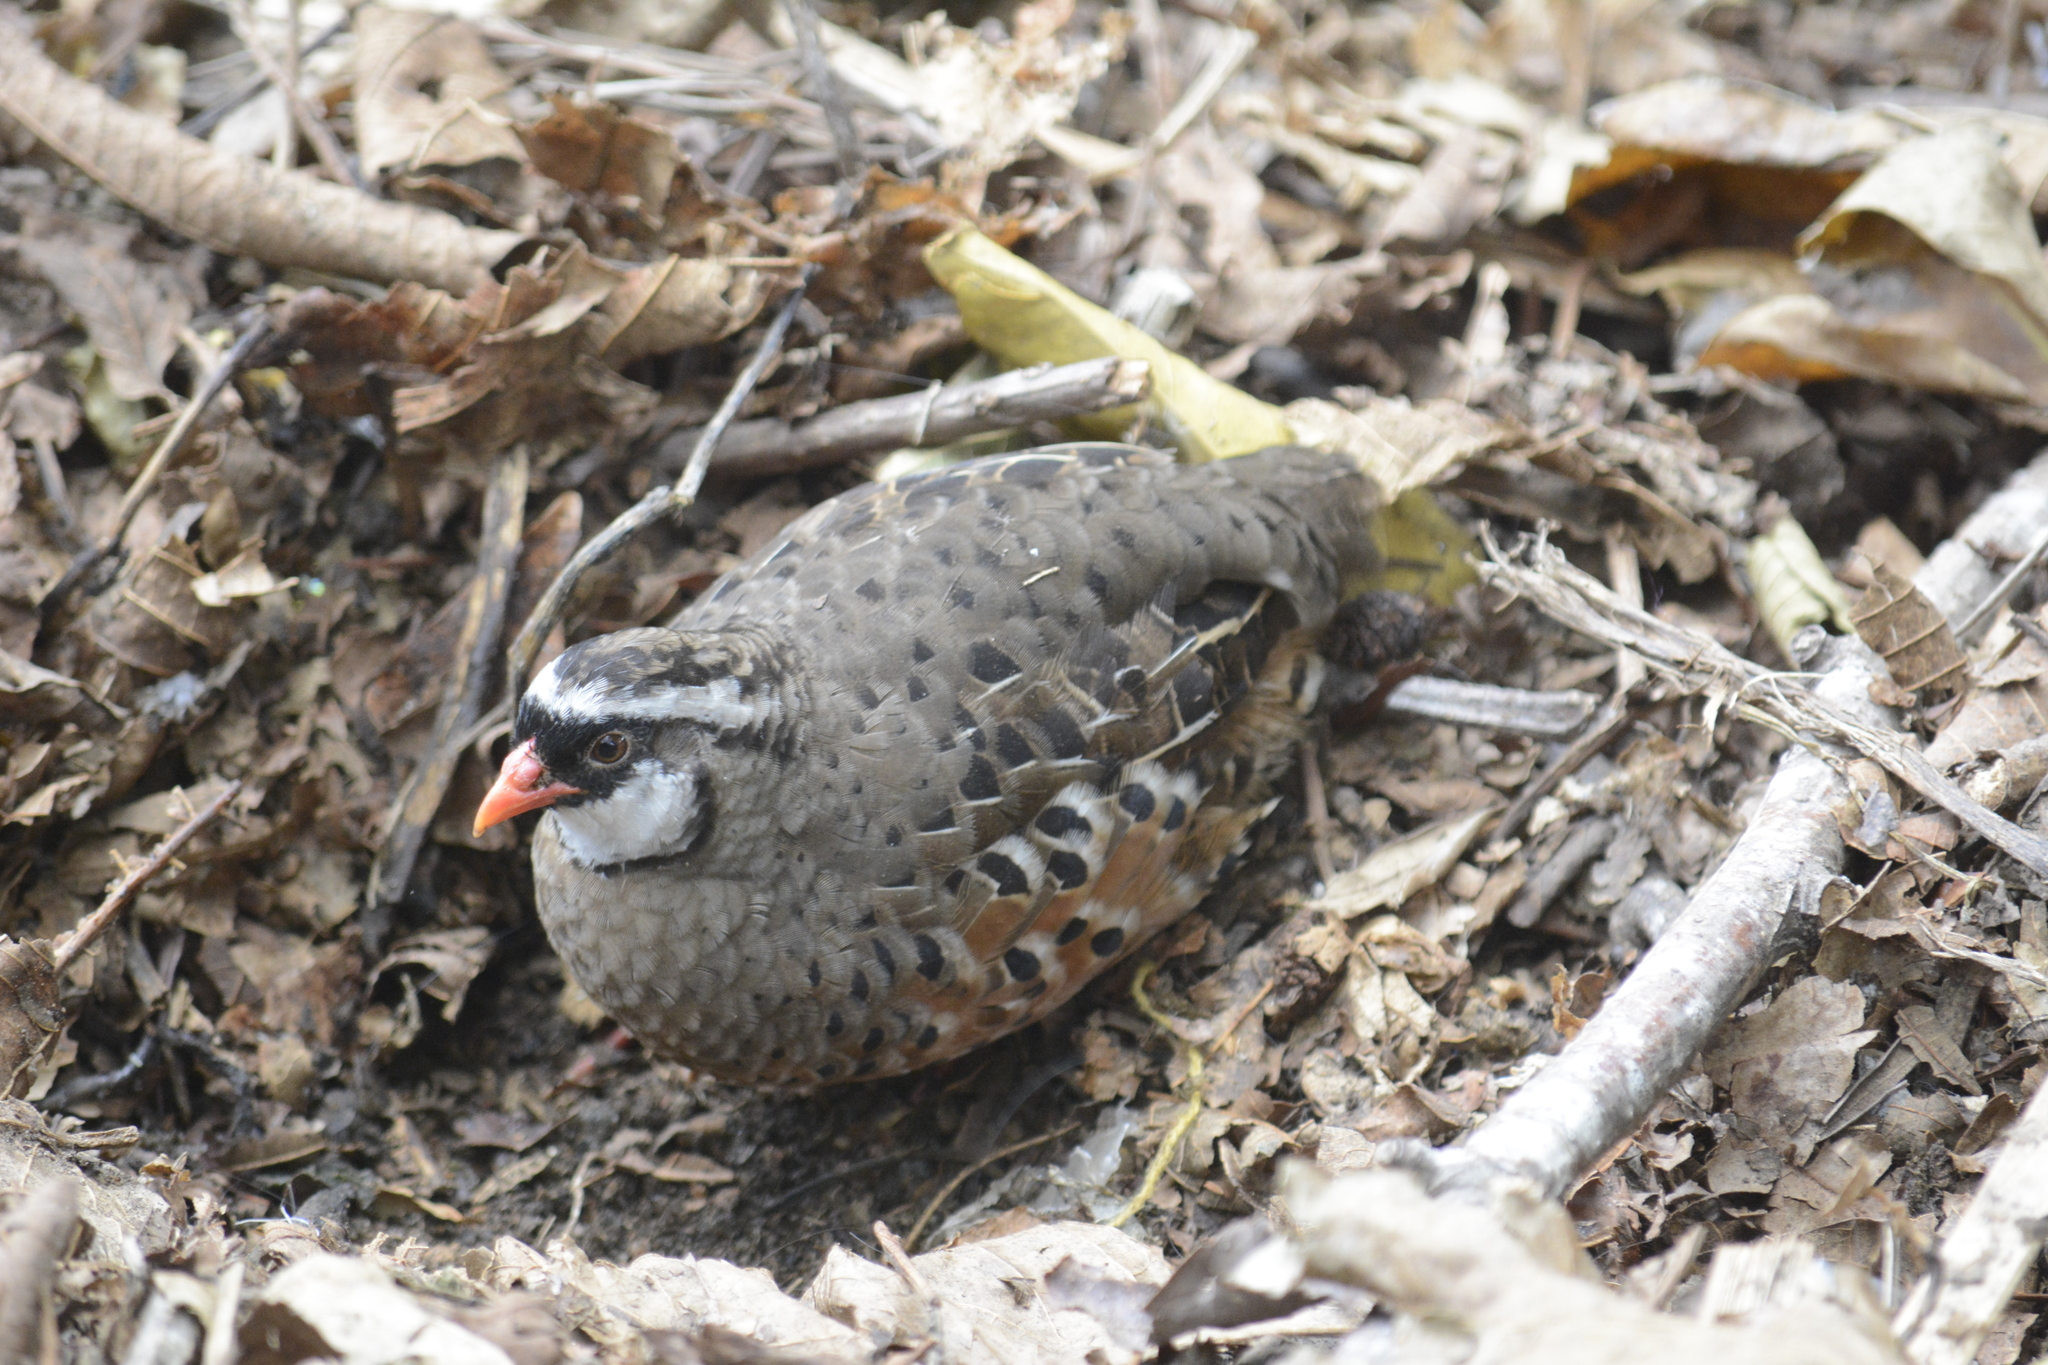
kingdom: Animalia
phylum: Chordata
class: Aves
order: Galliformes
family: Phasianidae
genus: Perdicula
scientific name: Perdicula erythrorhyncha
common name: Painted bush-quail
